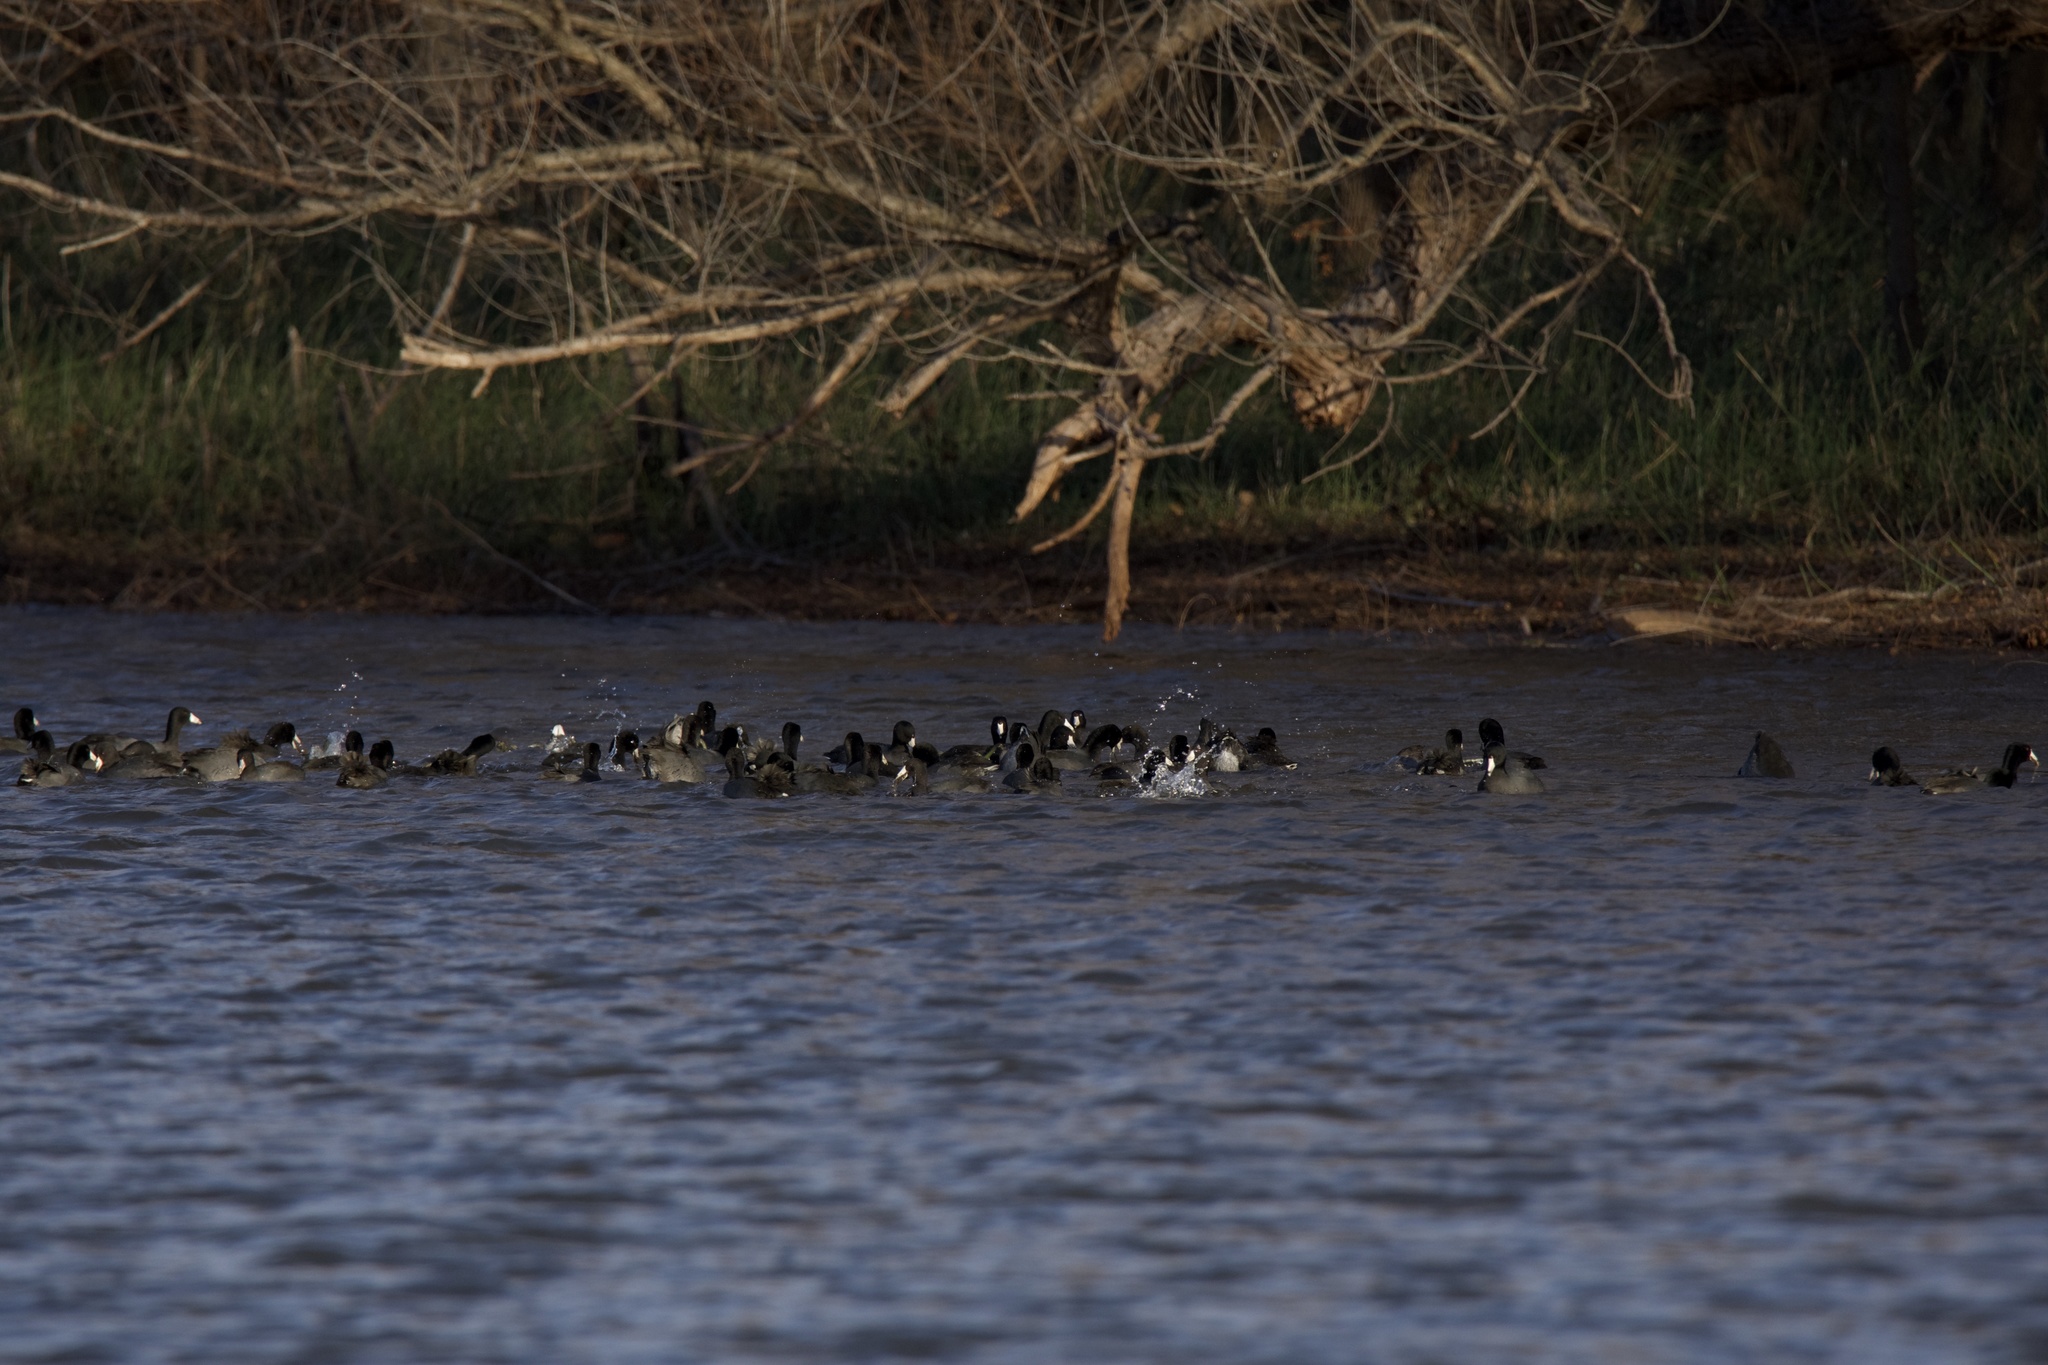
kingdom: Animalia
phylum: Chordata
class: Aves
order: Gruiformes
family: Rallidae
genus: Fulica
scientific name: Fulica americana
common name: American coot
